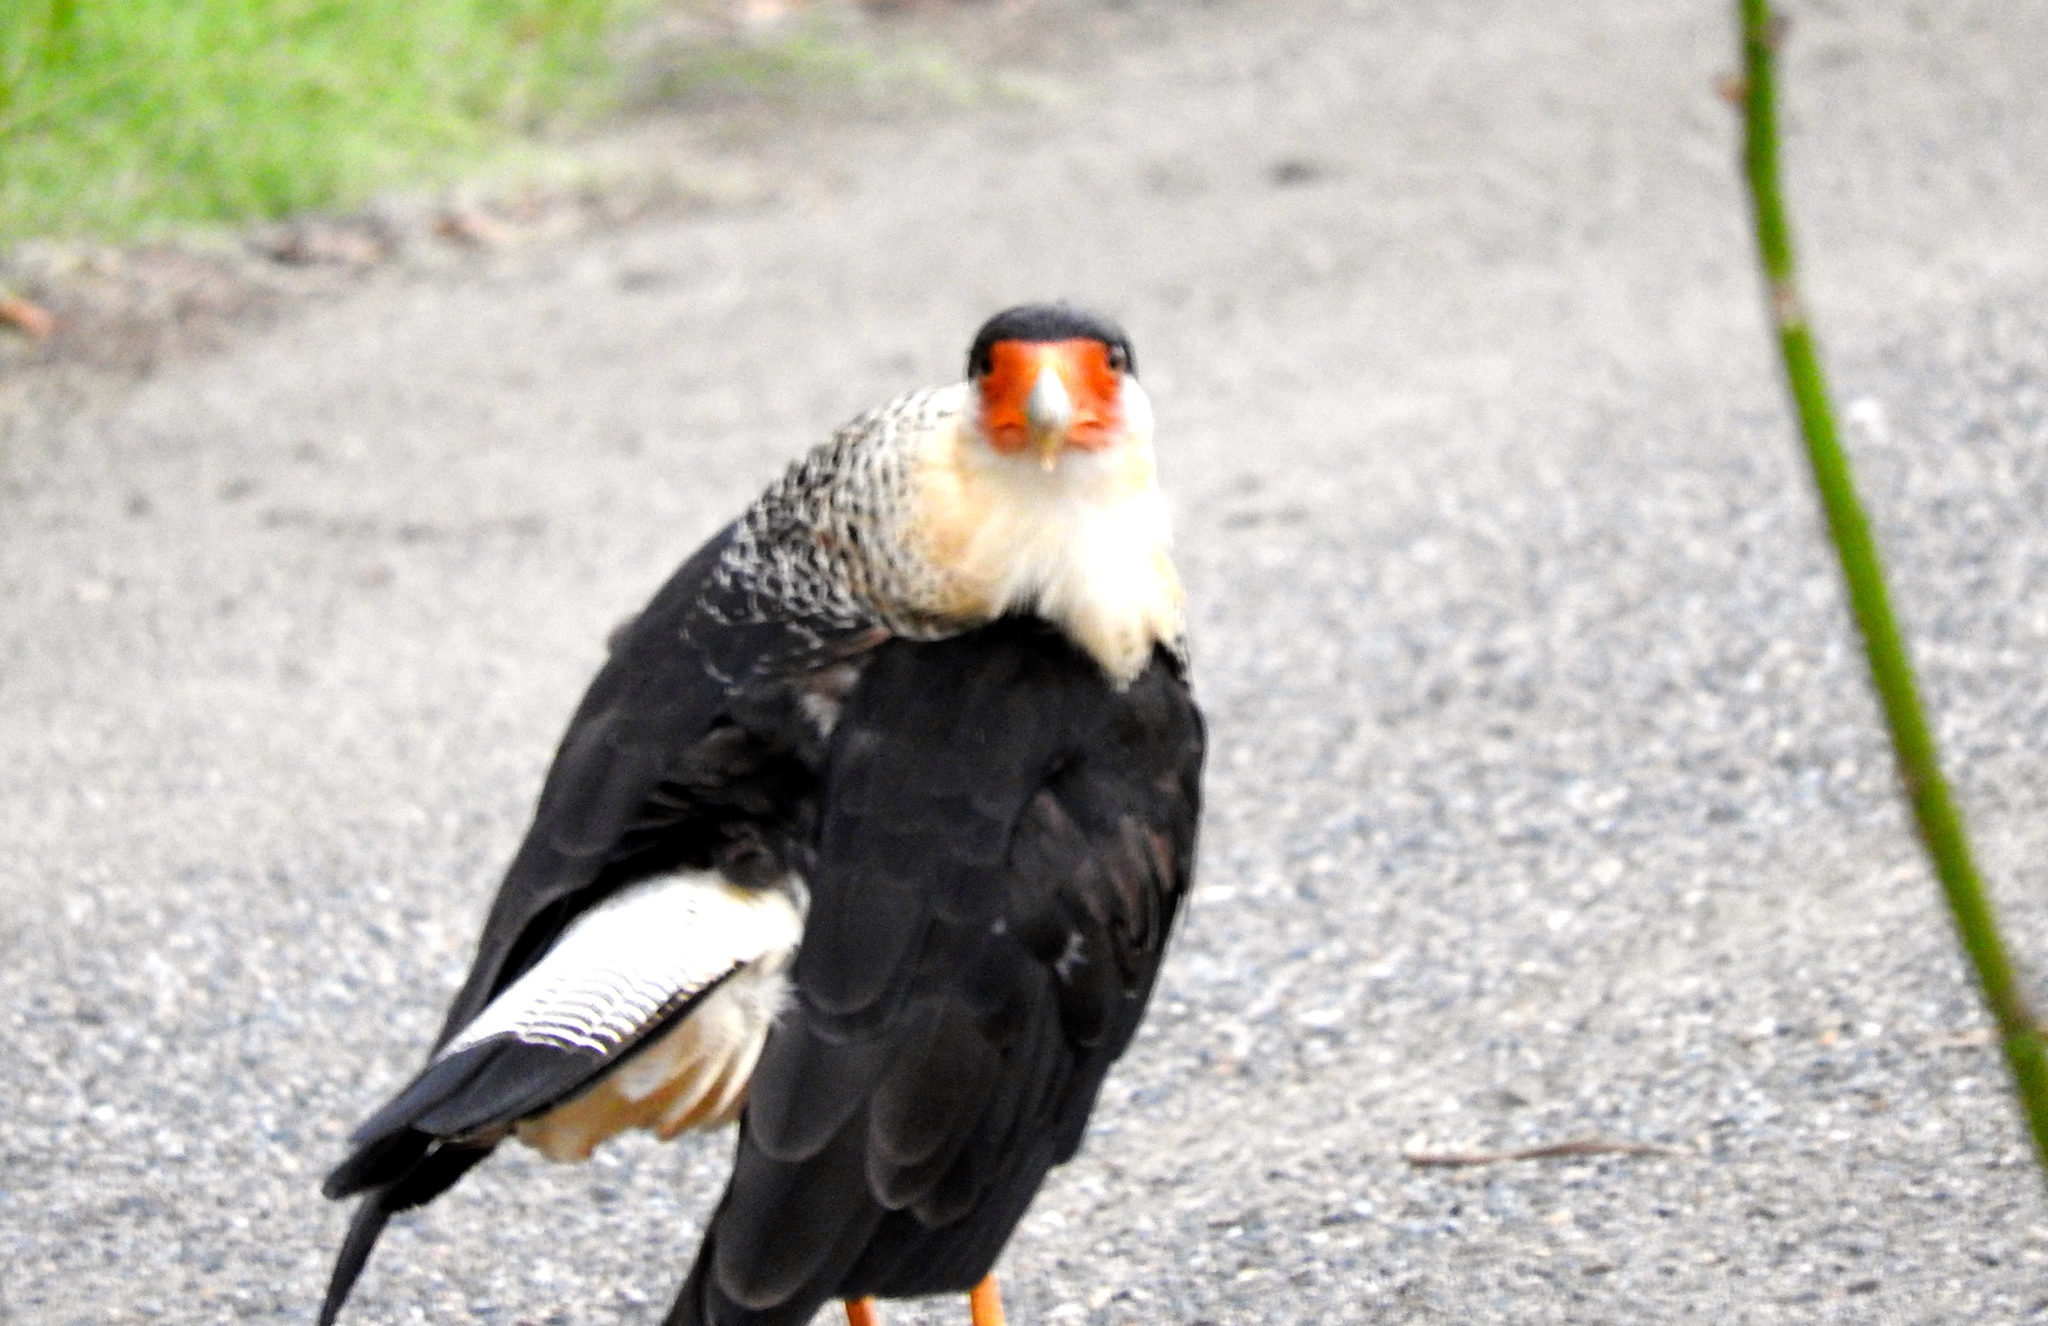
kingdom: Animalia
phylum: Chordata
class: Aves
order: Falconiformes
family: Falconidae
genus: Caracara
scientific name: Caracara plancus
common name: Southern caracara
